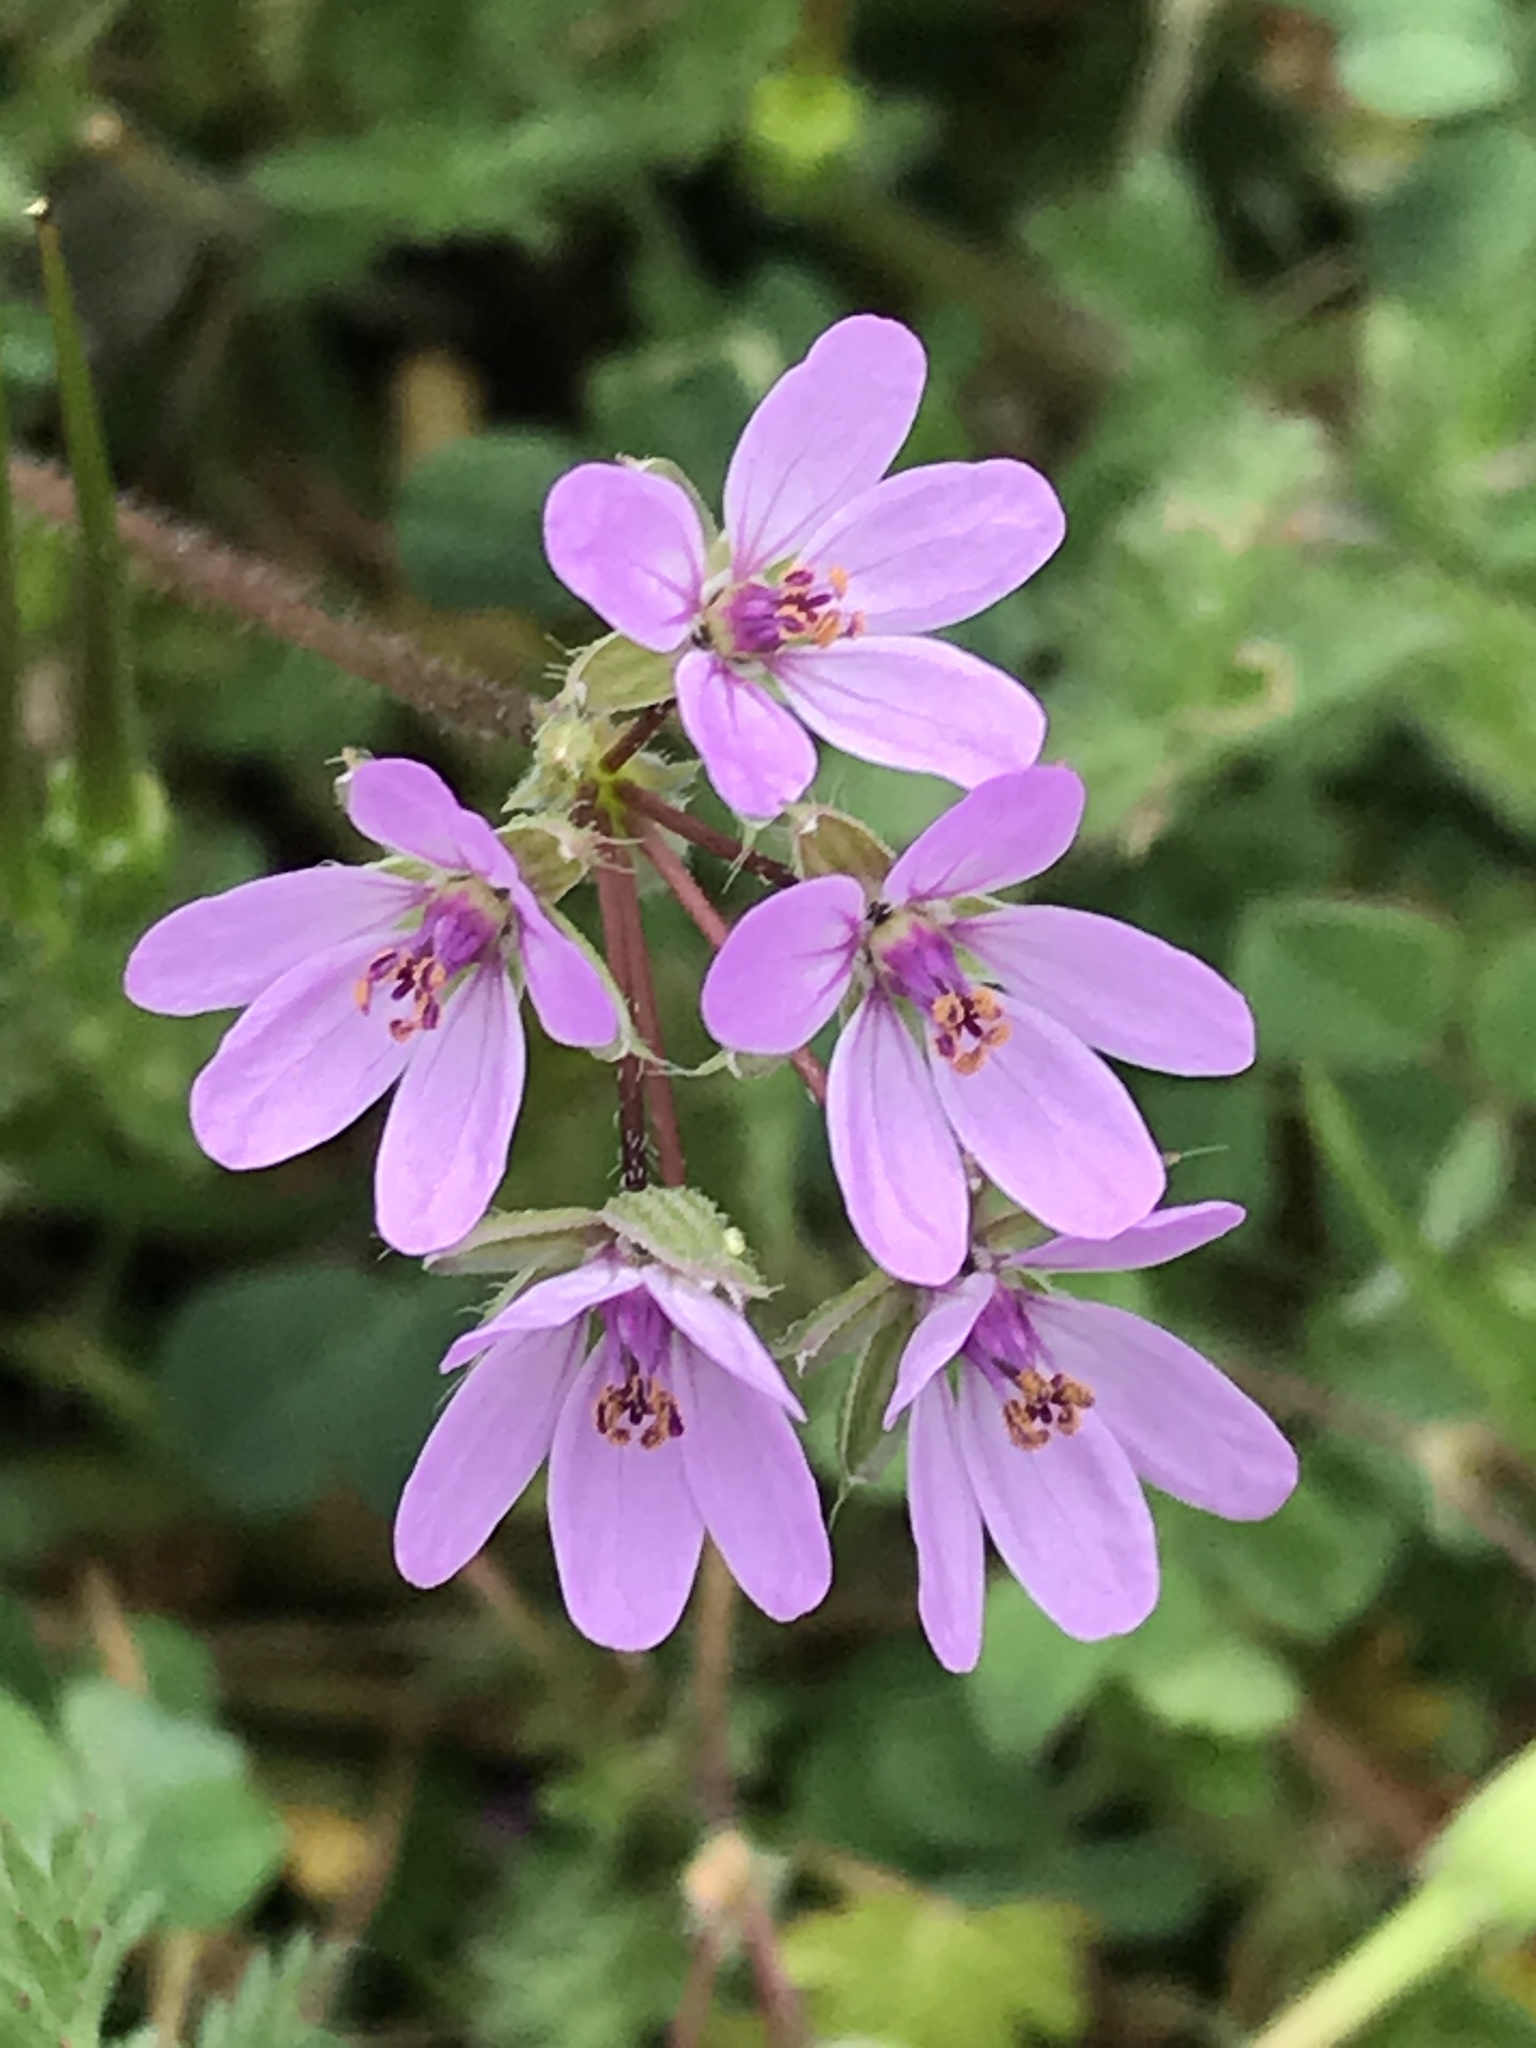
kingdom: Plantae
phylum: Tracheophyta
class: Magnoliopsida
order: Geraniales
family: Geraniaceae
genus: Erodium
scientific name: Erodium cicutarium
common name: Common stork's-bill
